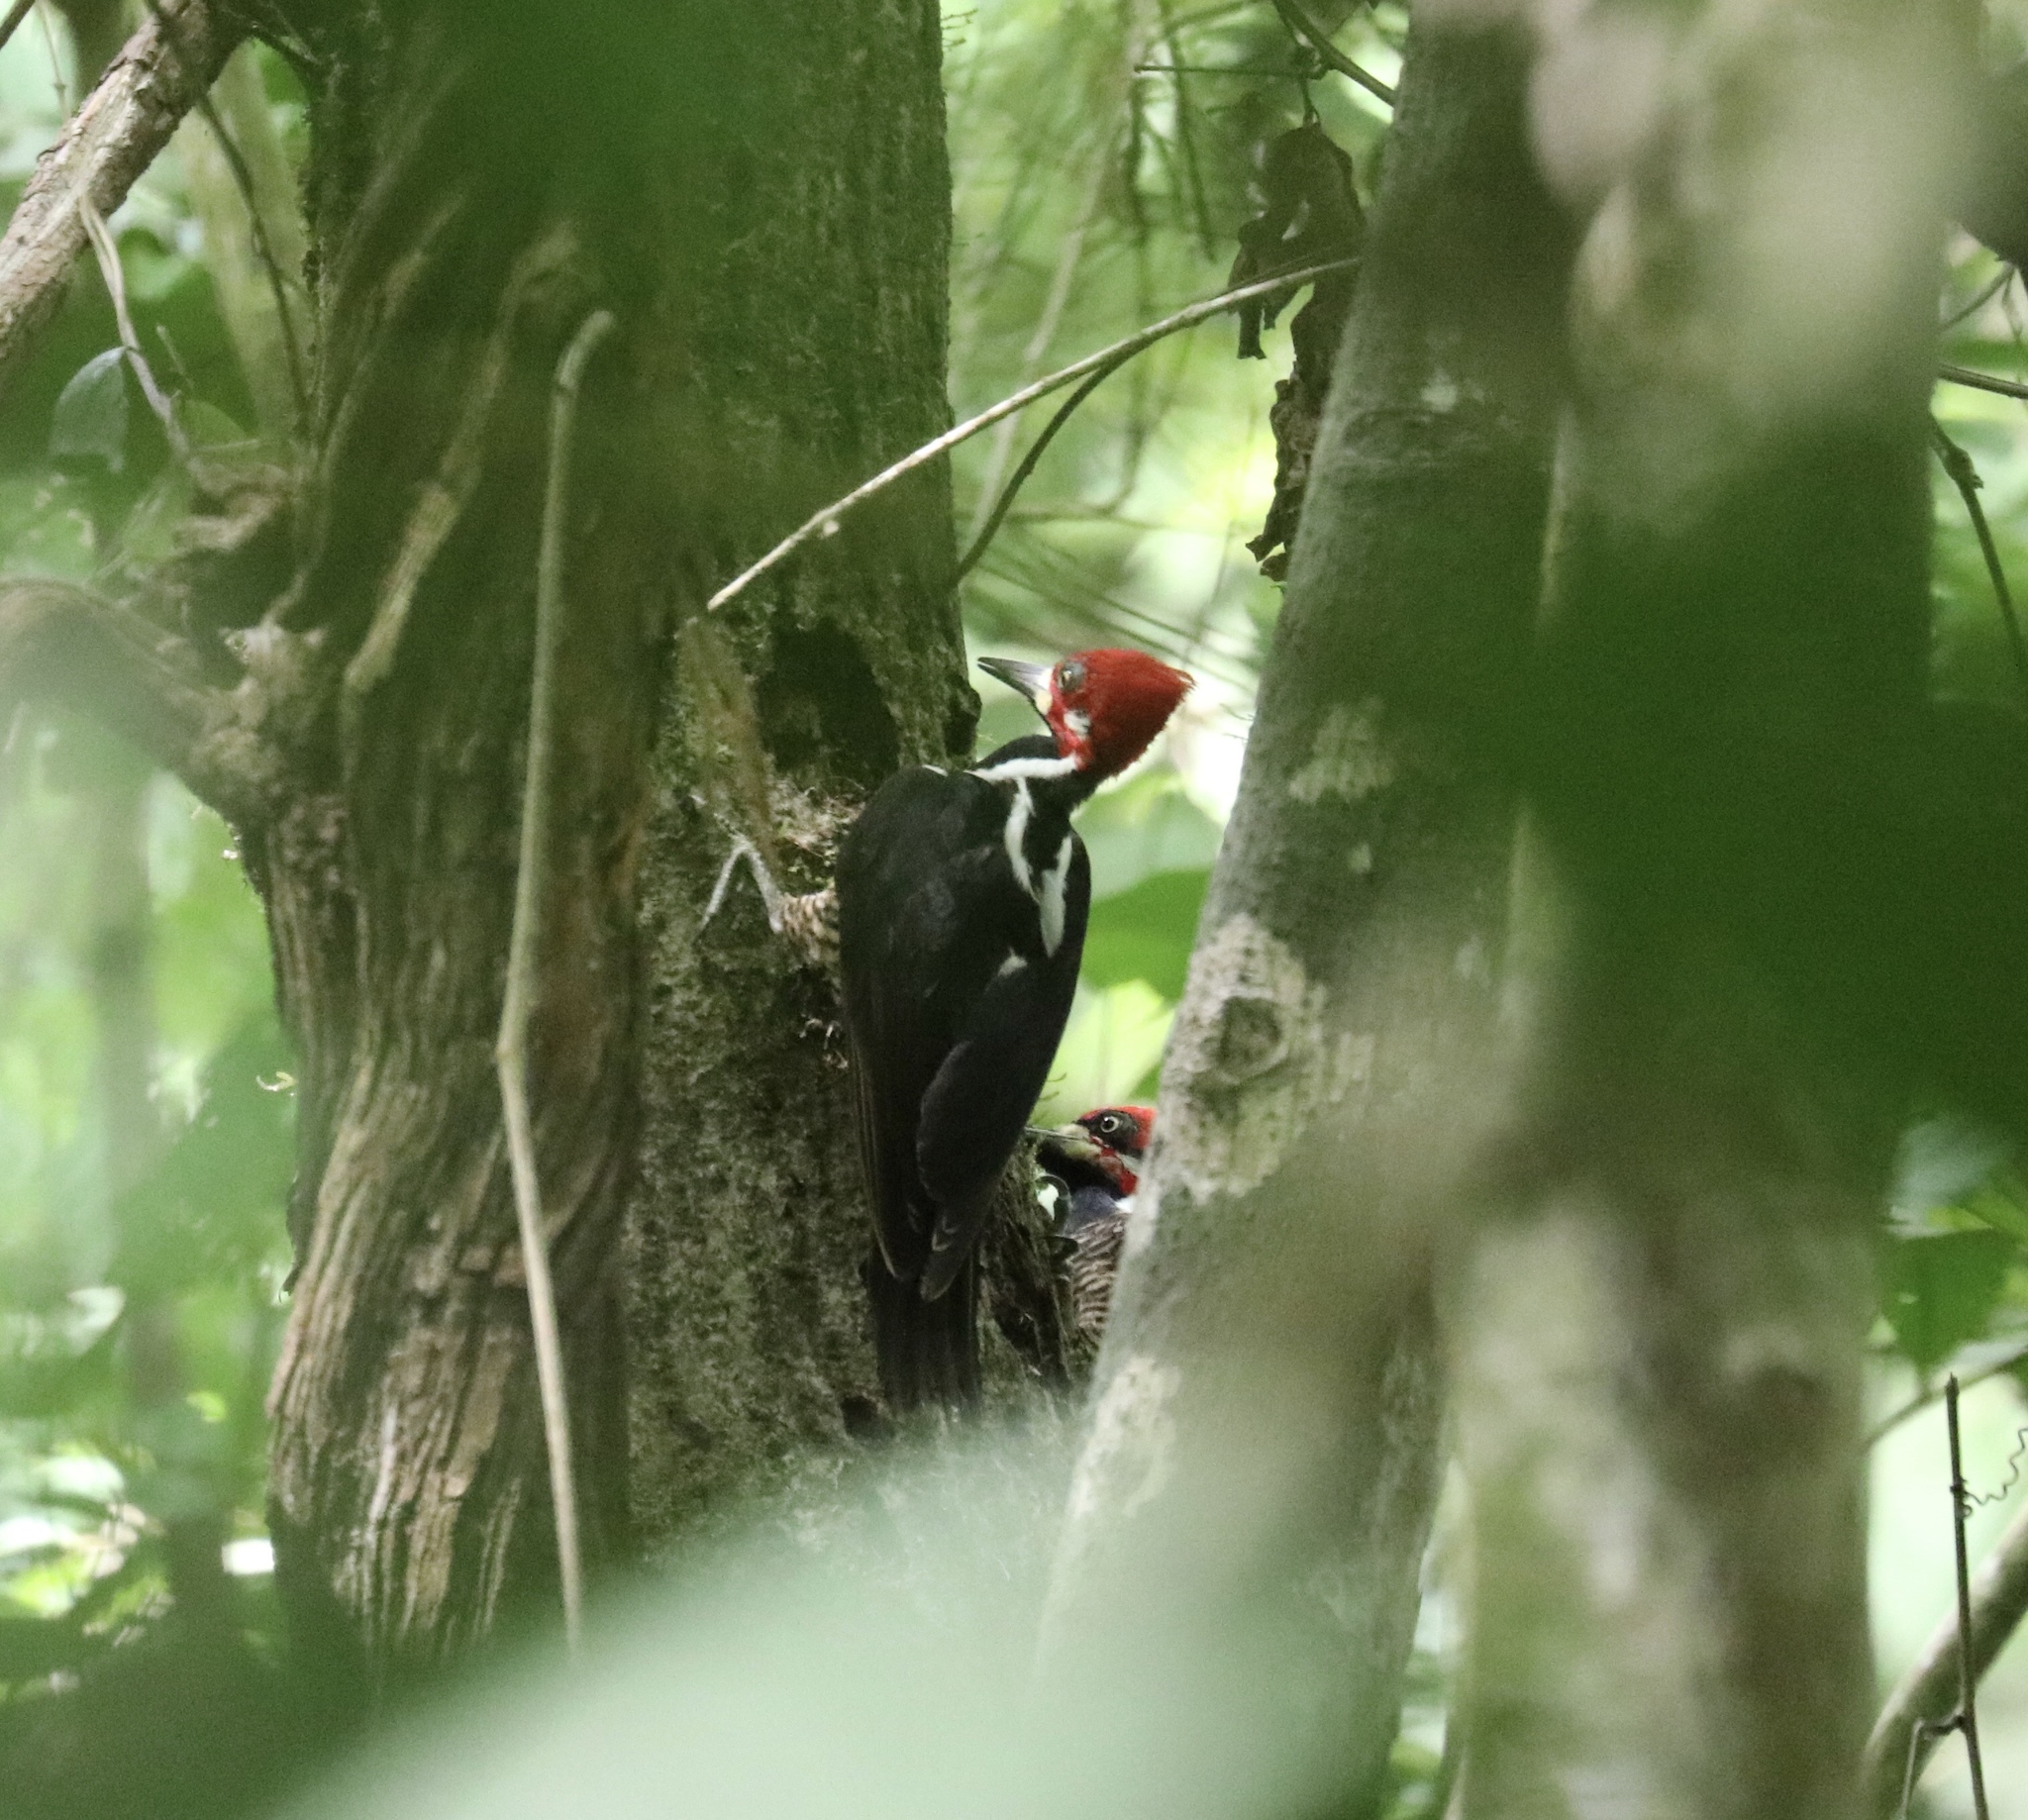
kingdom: Animalia
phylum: Chordata
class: Aves
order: Piciformes
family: Picidae
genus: Campephilus
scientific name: Campephilus melanoleucos
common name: Crimson-crested woodpecker
